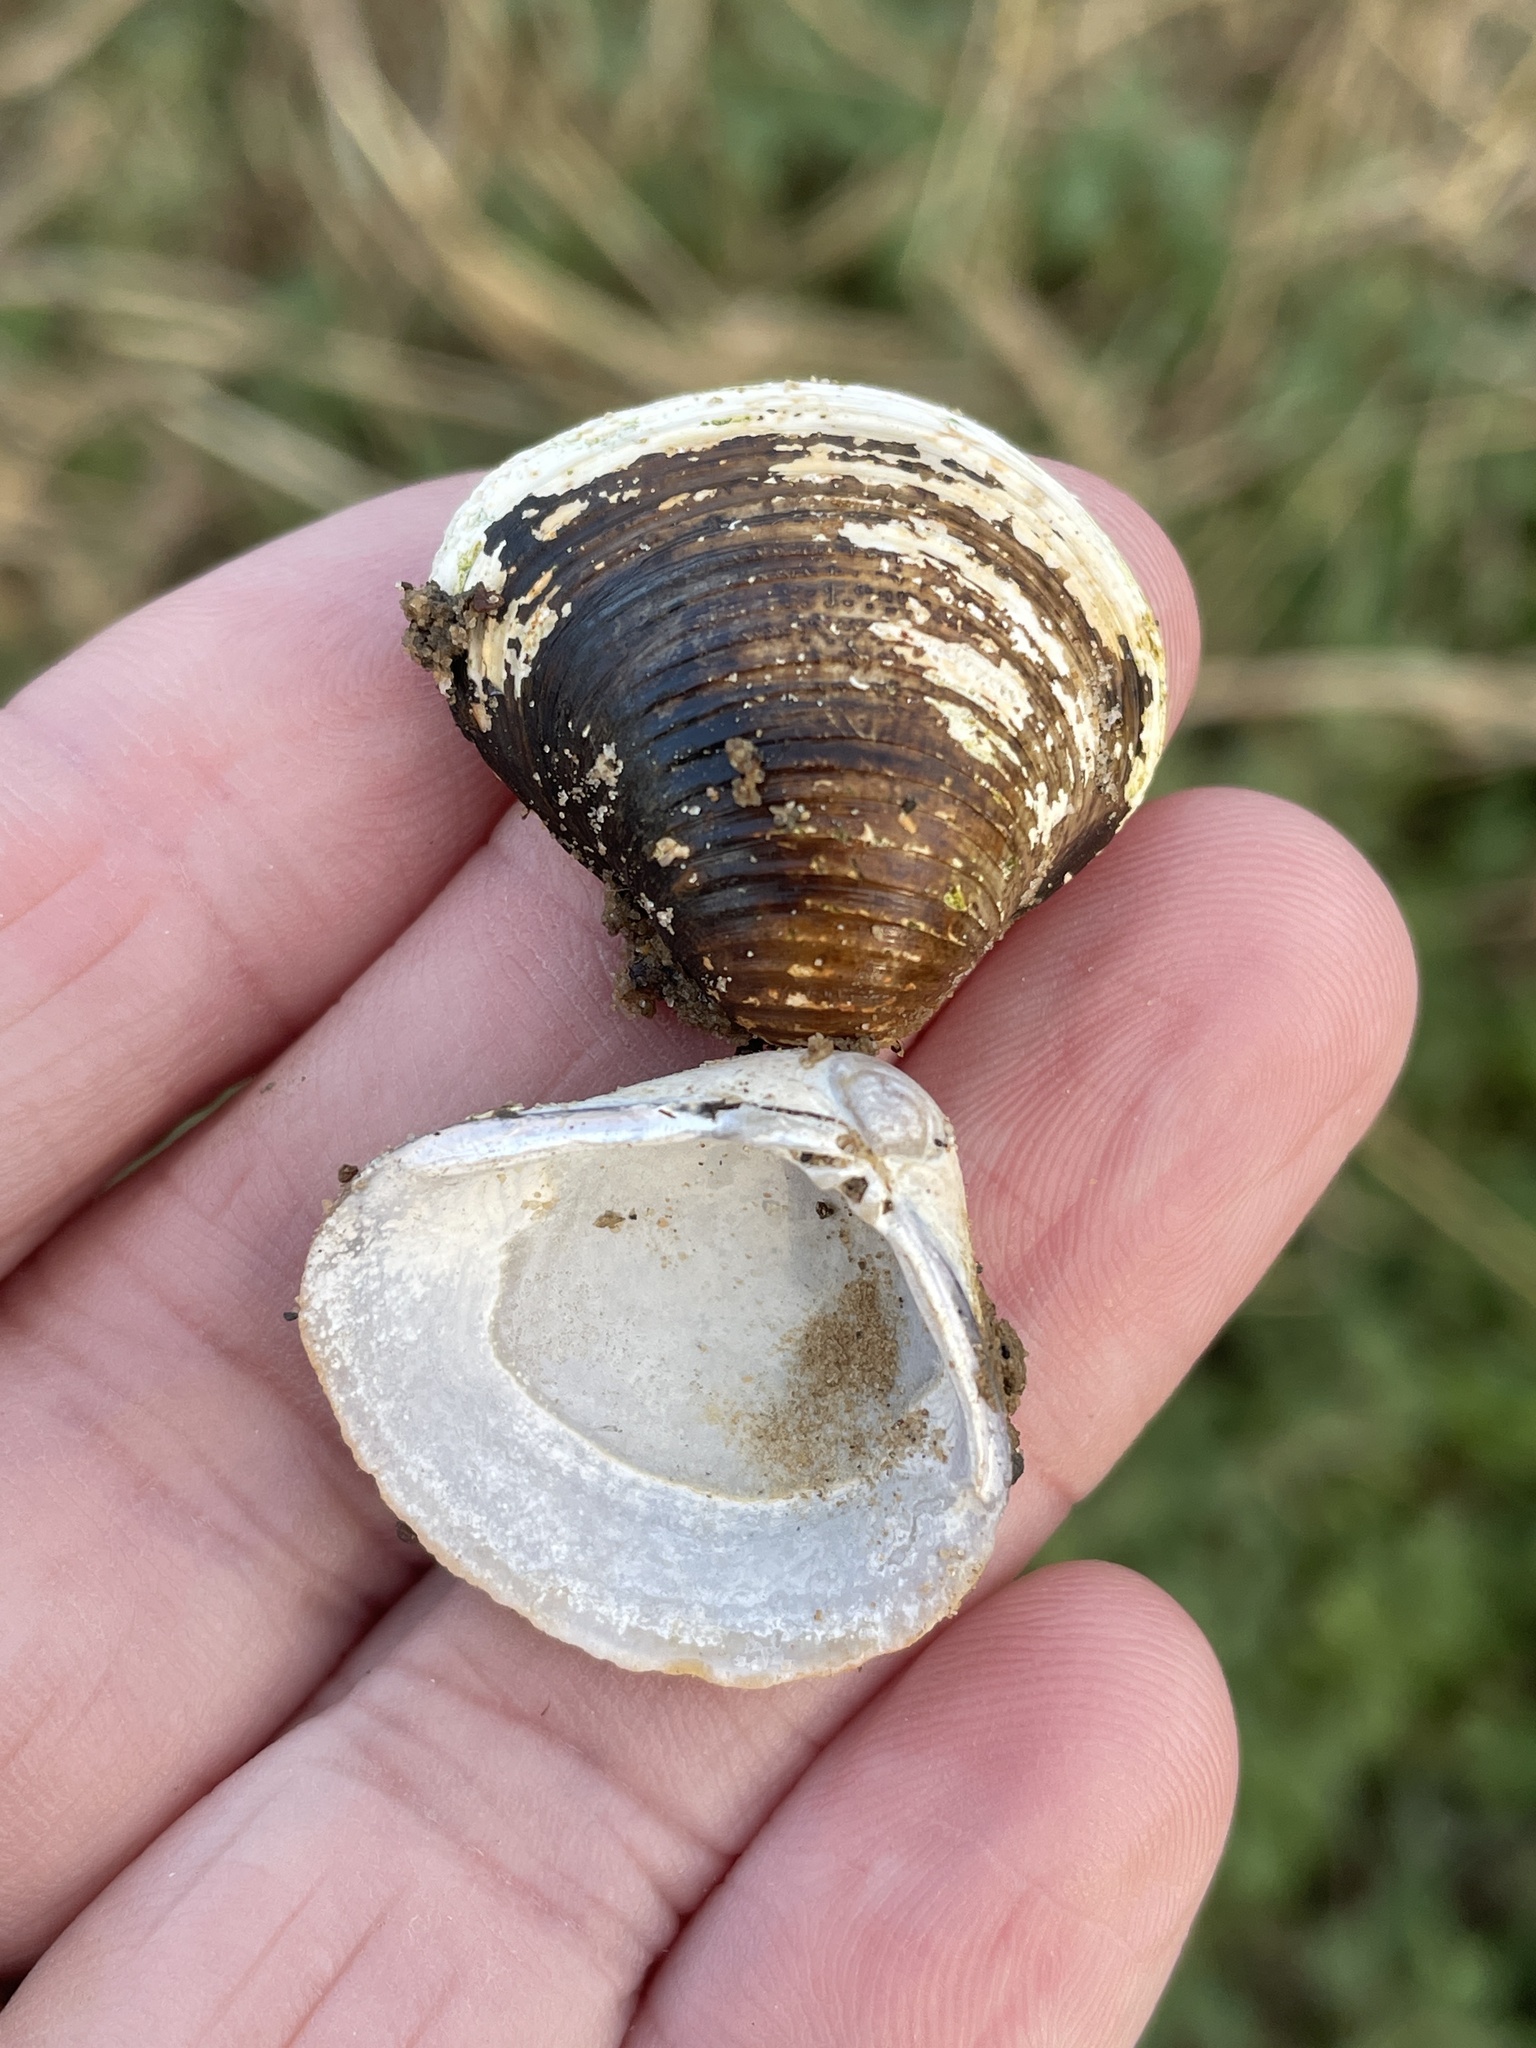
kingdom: Animalia
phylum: Mollusca
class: Bivalvia
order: Venerida
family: Cyrenidae
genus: Corbicula
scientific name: Corbicula fluminea
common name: Asian clam
